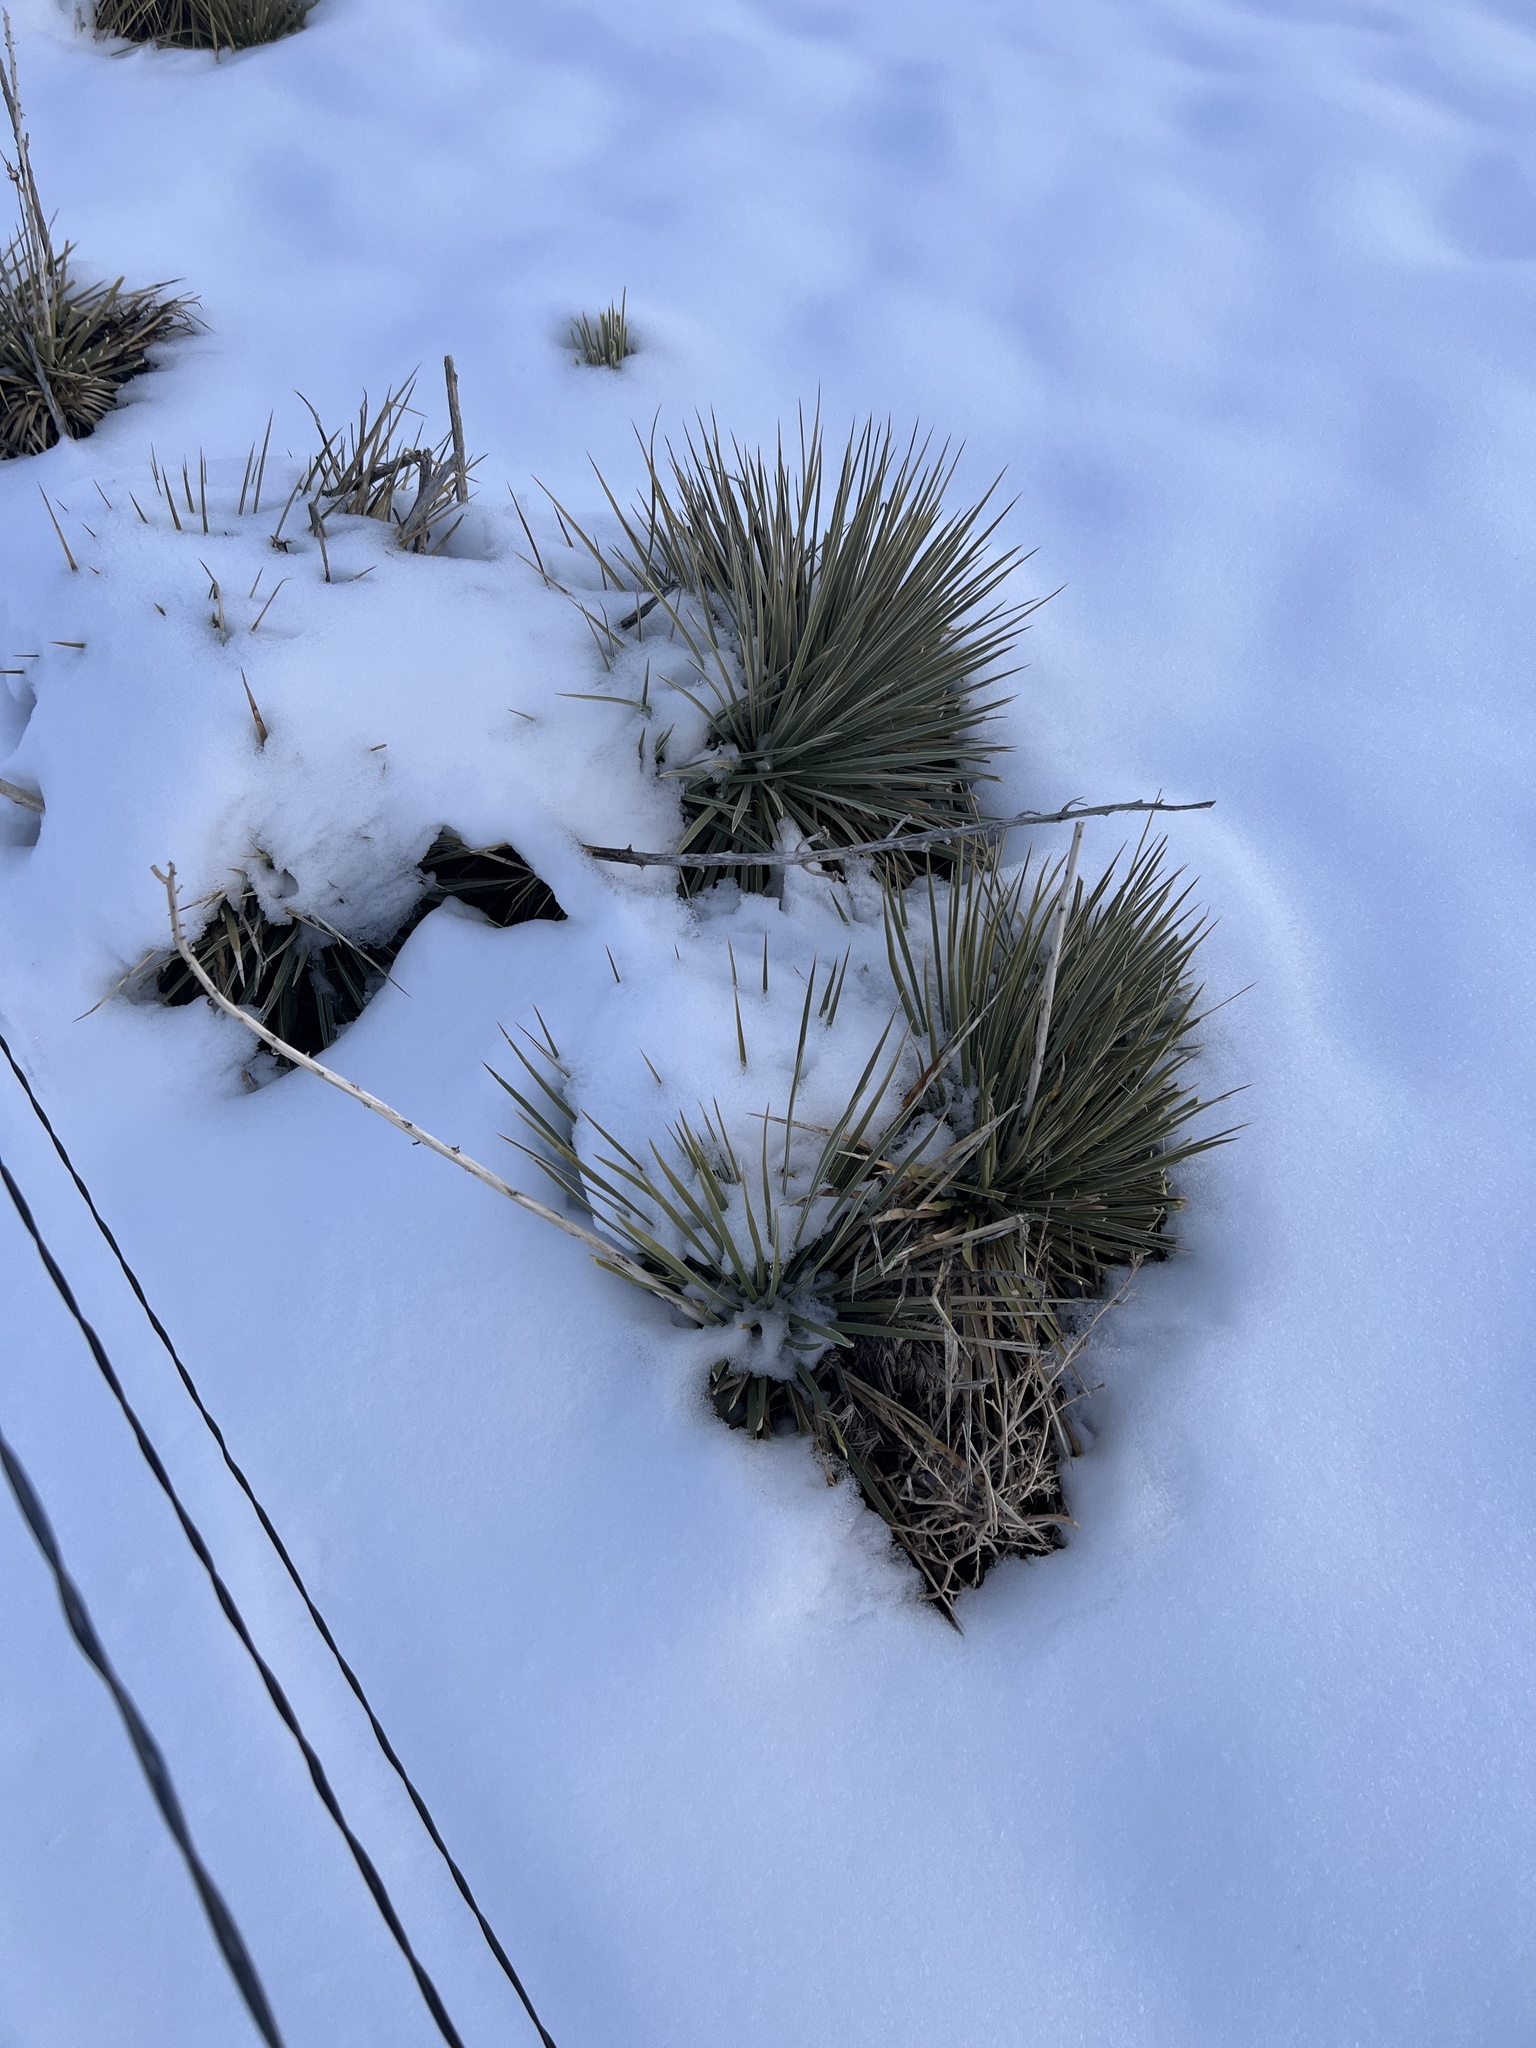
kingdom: Plantae
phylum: Tracheophyta
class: Liliopsida
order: Asparagales
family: Asparagaceae
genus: Yucca
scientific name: Yucca glauca
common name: Great plains yucca
